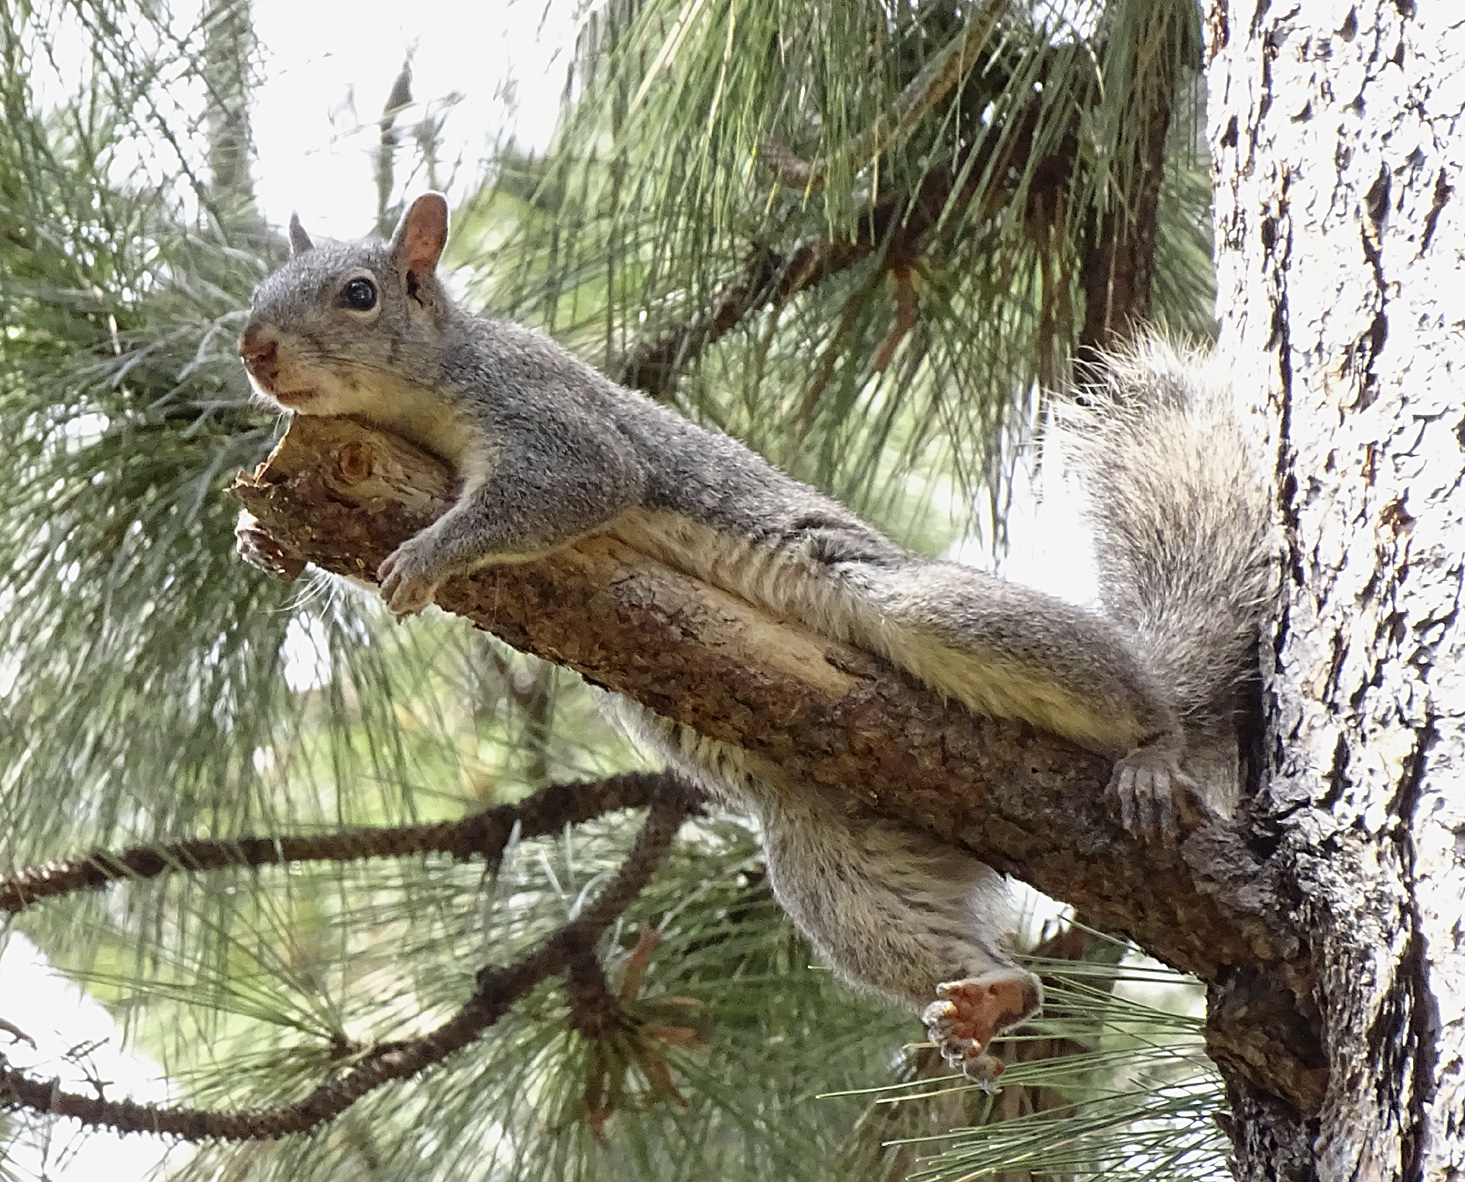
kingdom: Animalia
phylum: Chordata
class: Mammalia
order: Rodentia
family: Sciuridae
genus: Sciurus
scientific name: Sciurus griseus
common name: Western gray squirrel
